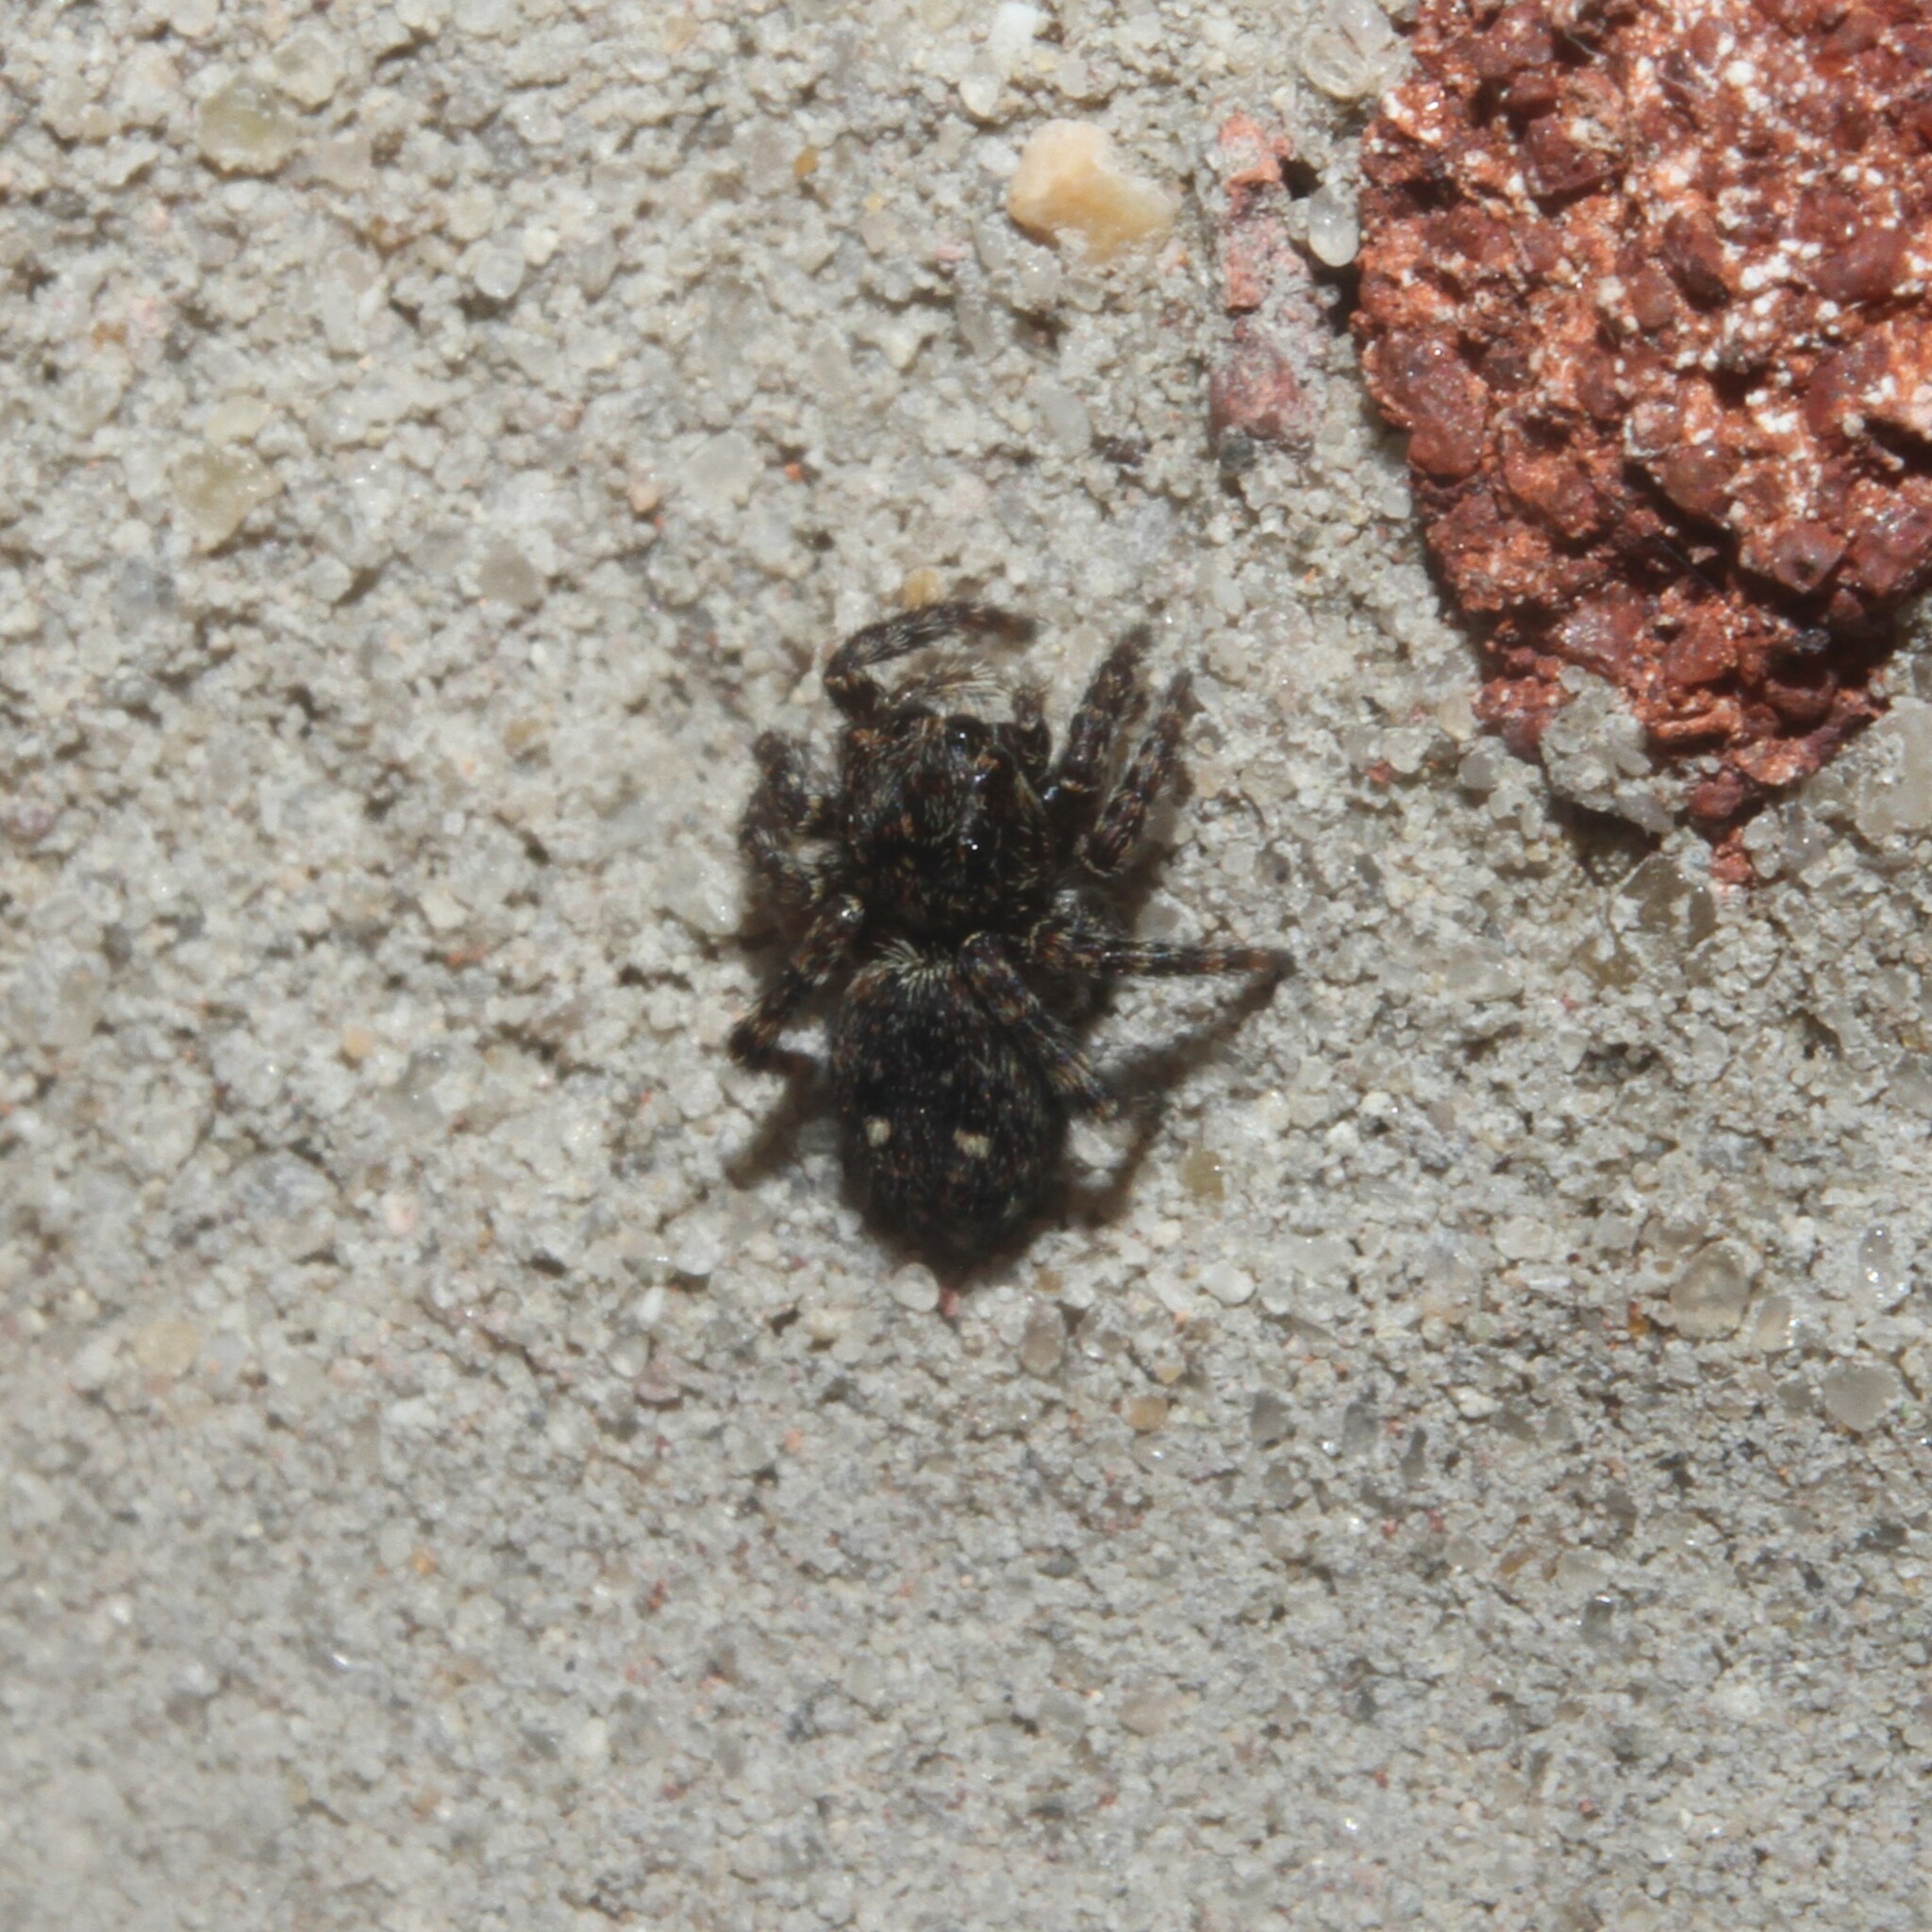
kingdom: Animalia
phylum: Arthropoda
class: Arachnida
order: Araneae
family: Salticidae
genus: Attulus
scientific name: Attulus pubescens
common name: Jumping spider
